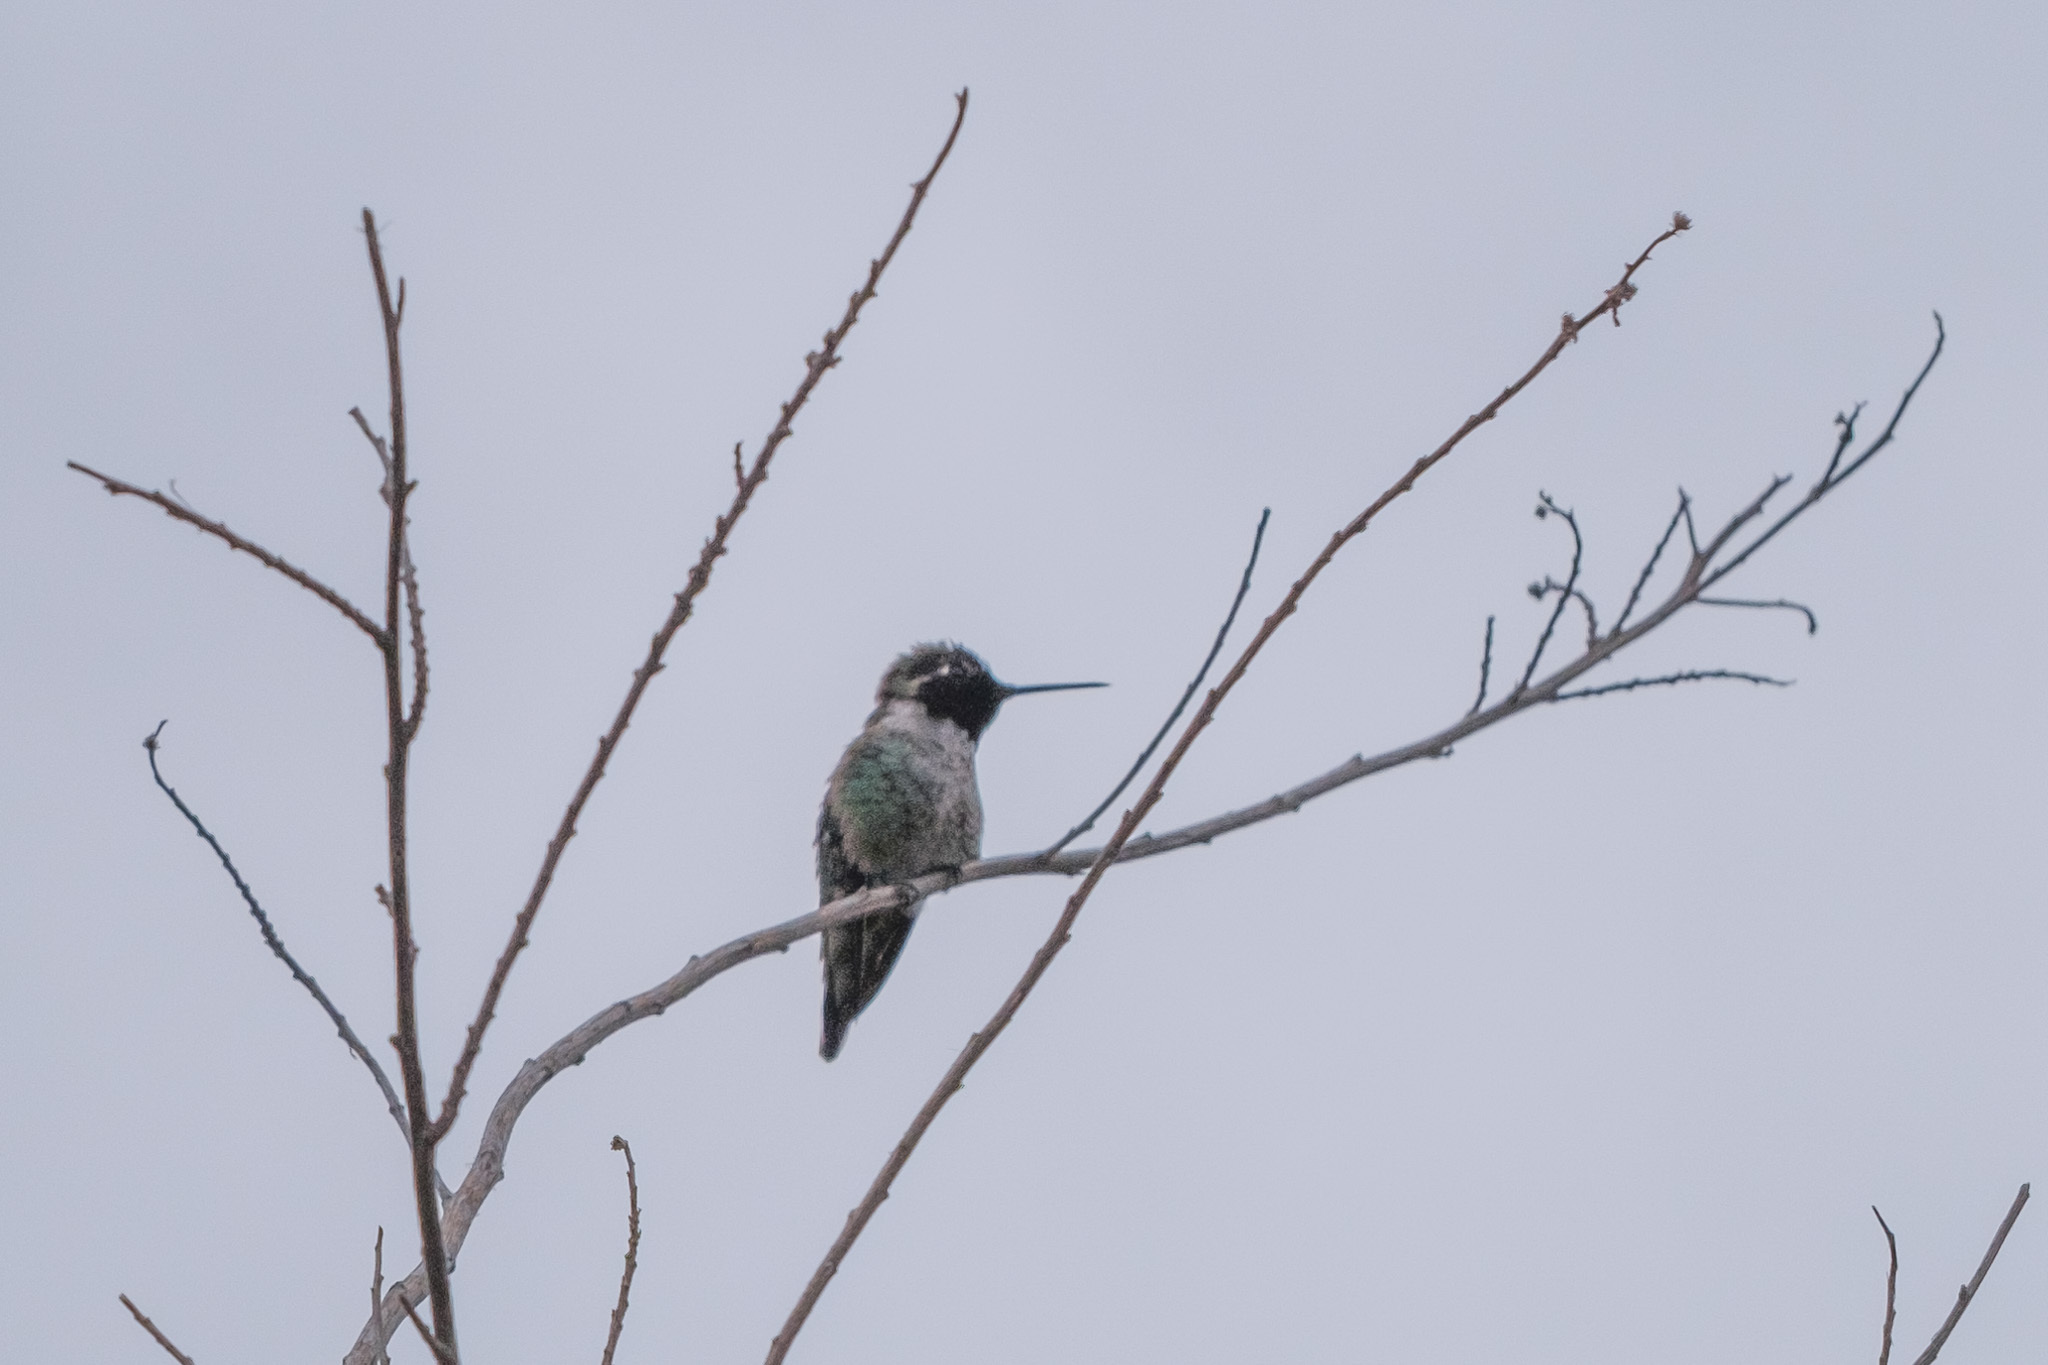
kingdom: Animalia
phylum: Chordata
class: Aves
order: Apodiformes
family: Trochilidae
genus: Calypte
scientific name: Calypte anna
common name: Anna's hummingbird
